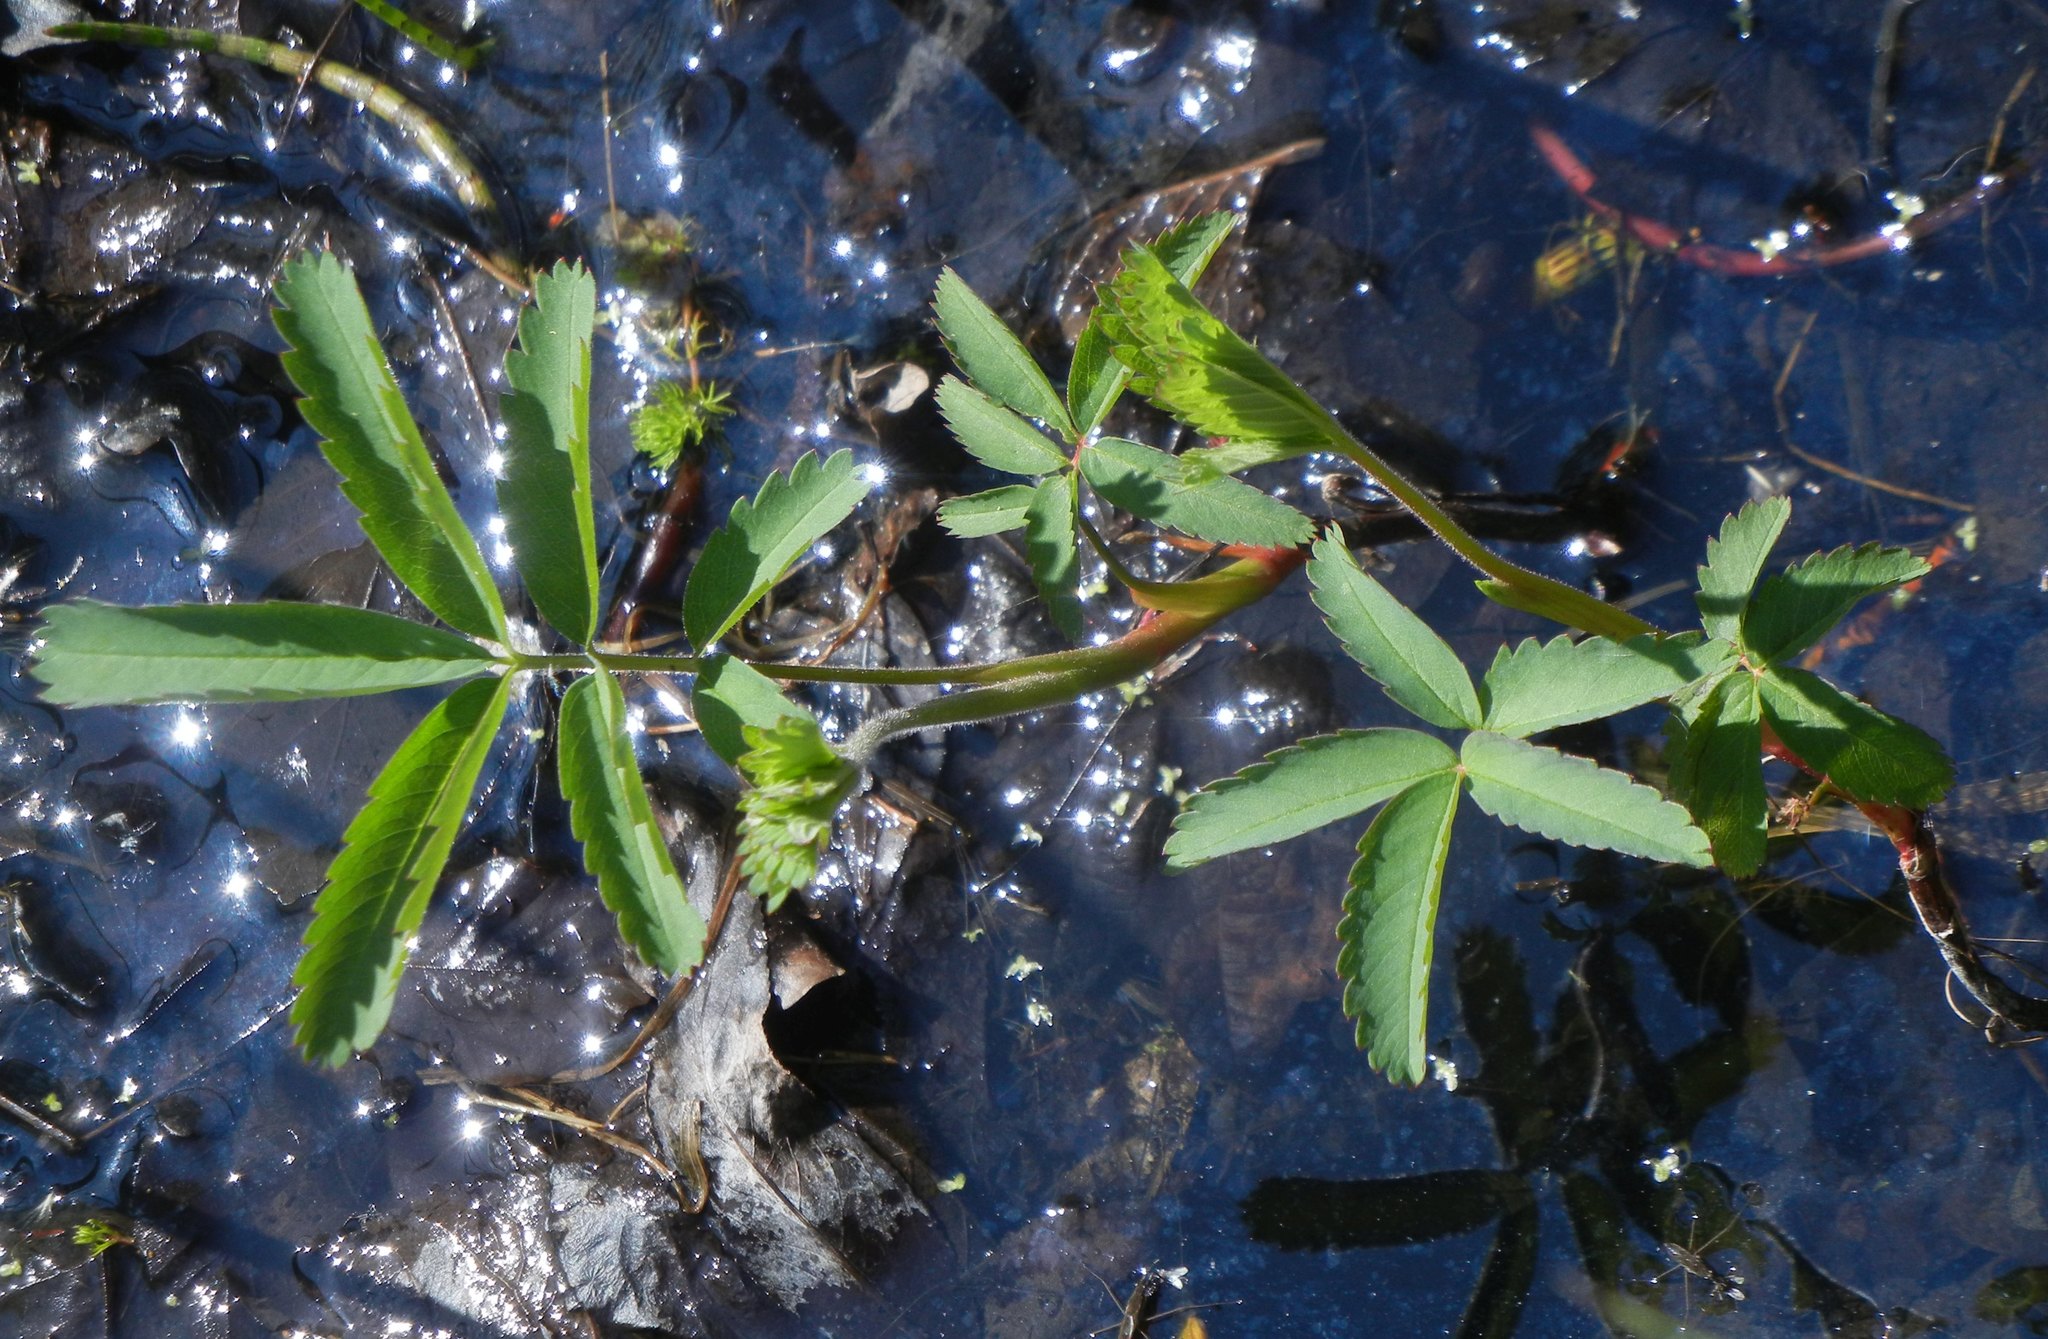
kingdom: Plantae
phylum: Tracheophyta
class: Magnoliopsida
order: Rosales
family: Rosaceae
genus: Comarum
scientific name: Comarum palustre
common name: Marsh cinquefoil
